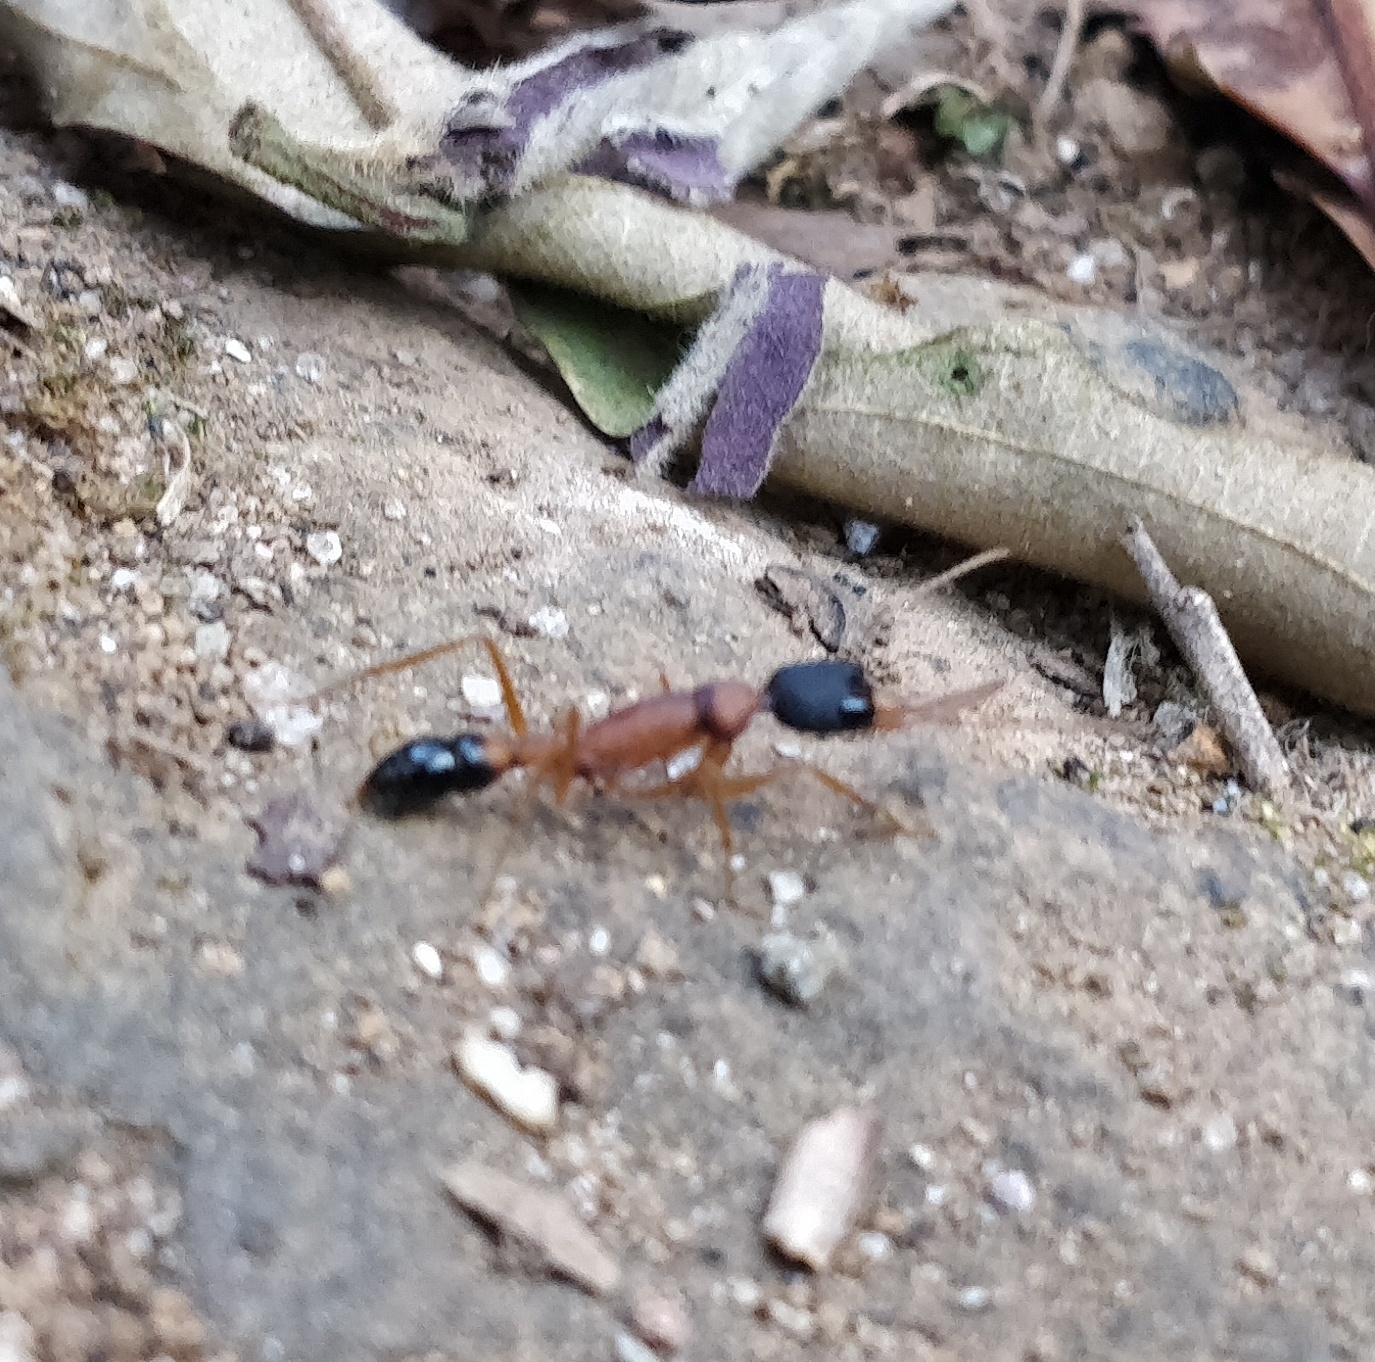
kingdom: Animalia
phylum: Arthropoda
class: Insecta
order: Hymenoptera
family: Formicidae
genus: Harpegnathos
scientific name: Harpegnathos saltator
